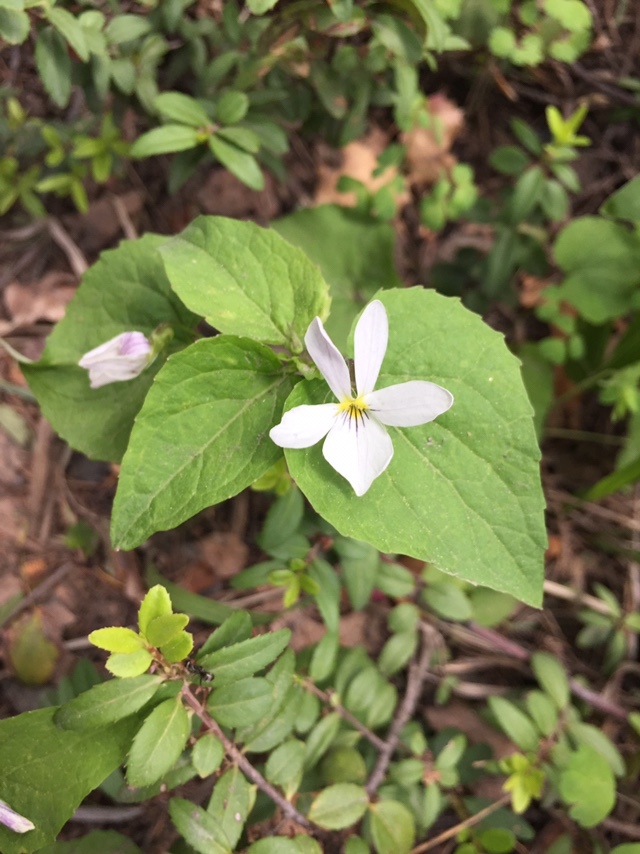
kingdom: Plantae
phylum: Tracheophyta
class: Magnoliopsida
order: Malpighiales
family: Violaceae
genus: Viola
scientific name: Viola canadensis
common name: Canada violet
